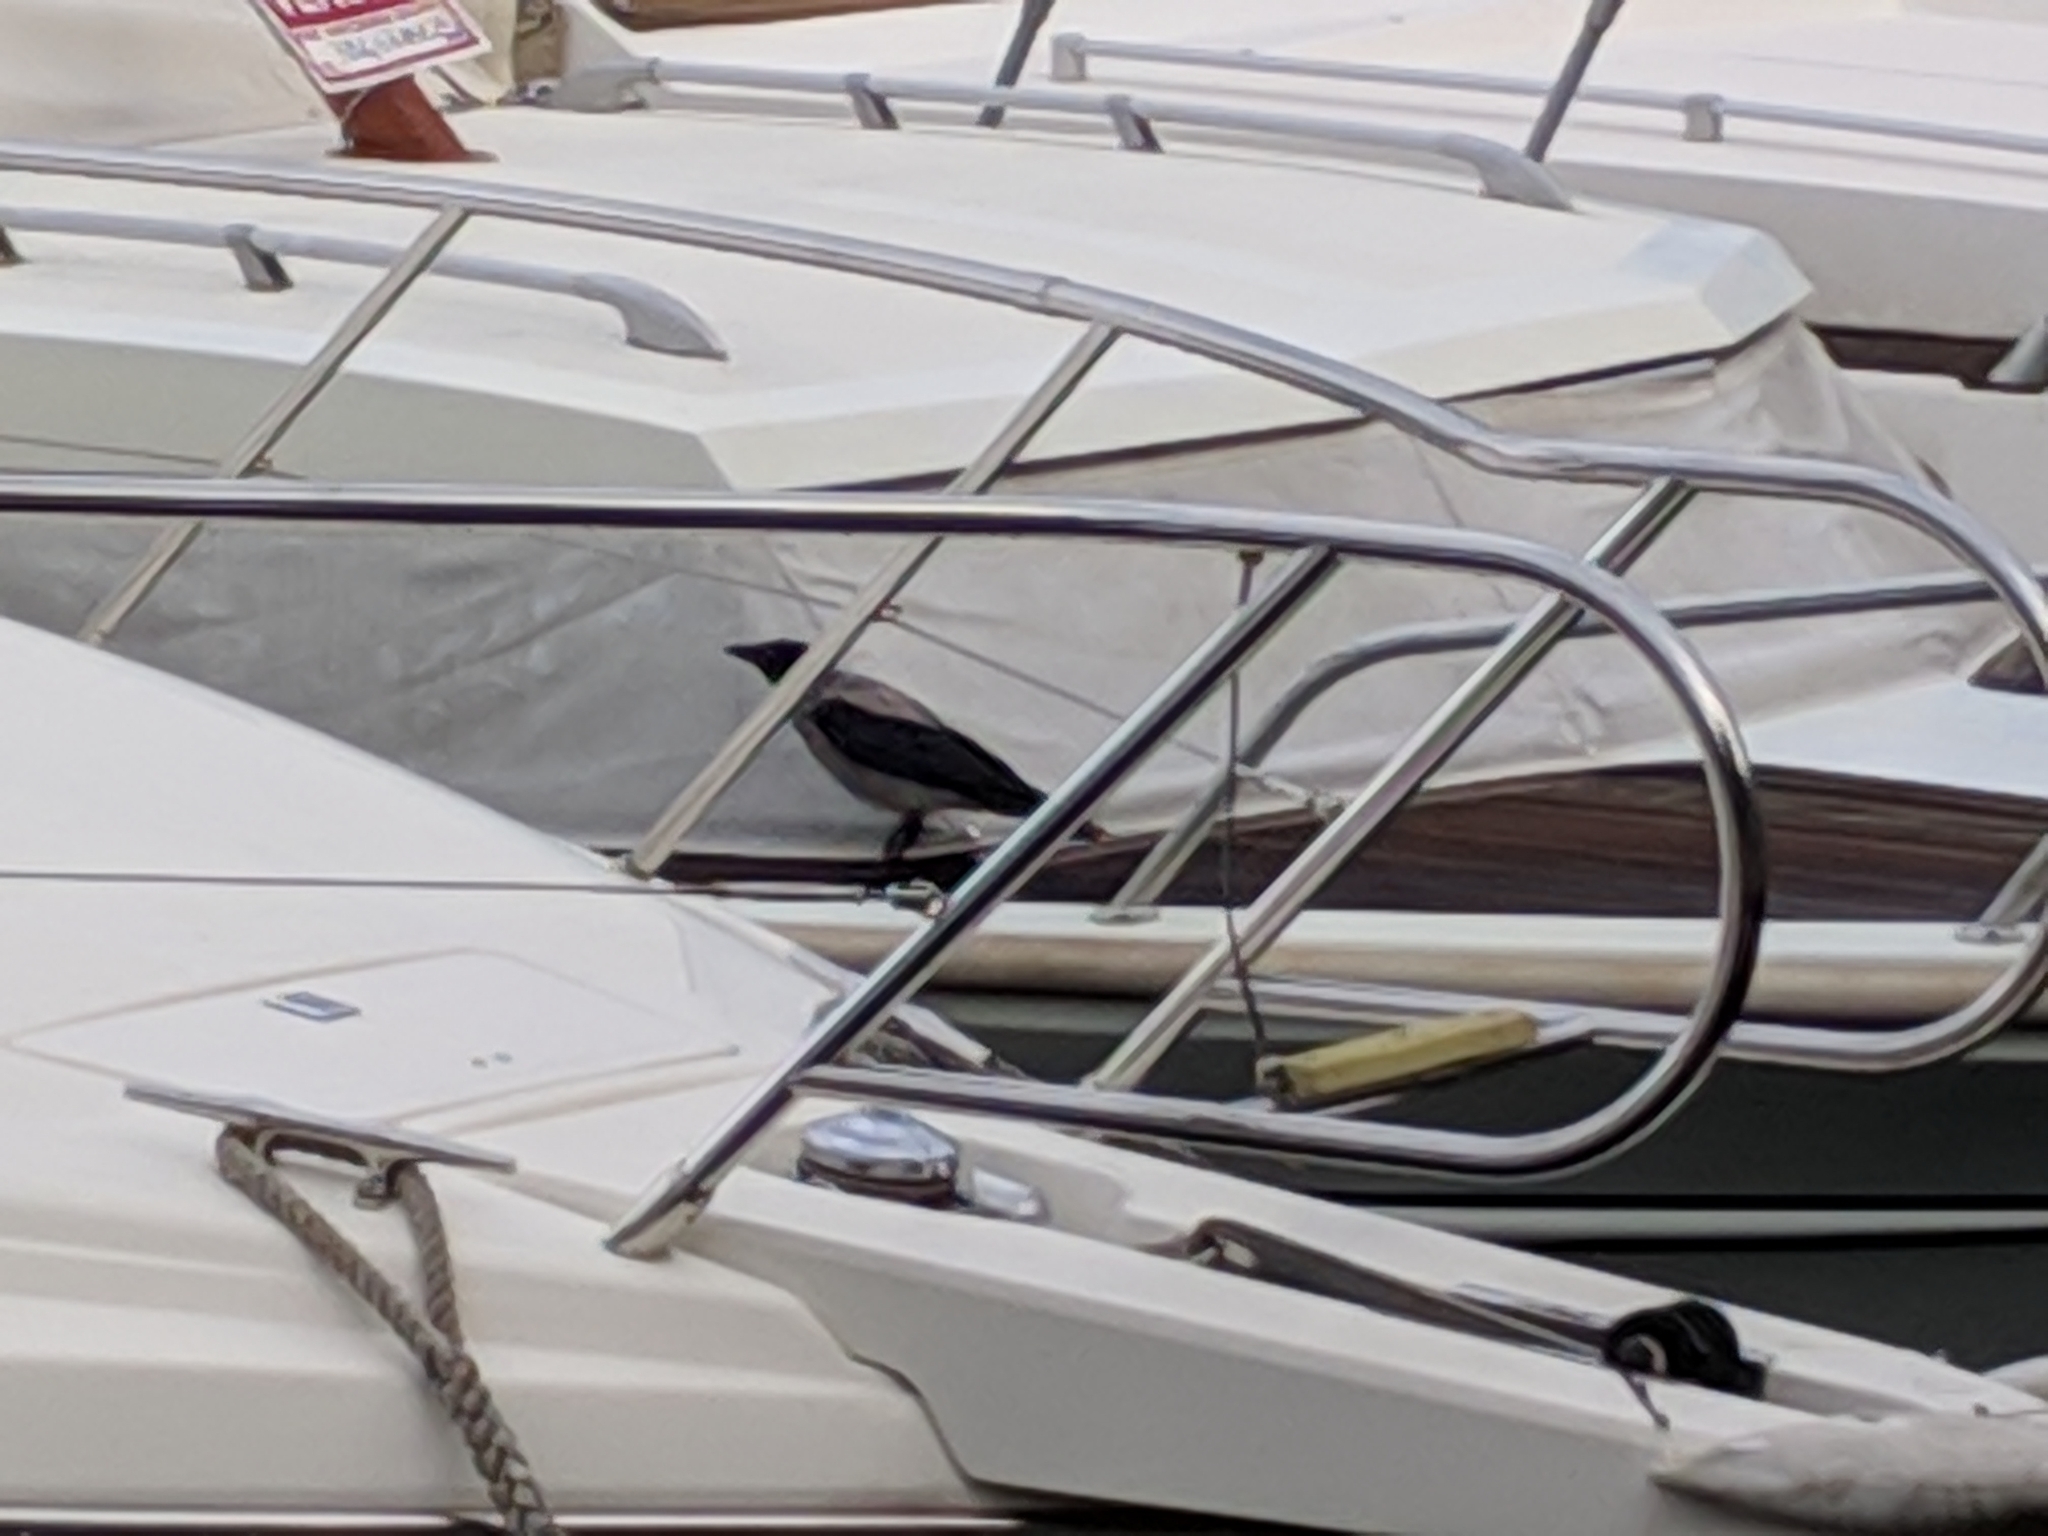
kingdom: Animalia
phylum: Chordata
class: Aves
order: Passeriformes
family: Corvidae
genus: Corvus
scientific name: Corvus cornix
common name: Hooded crow
